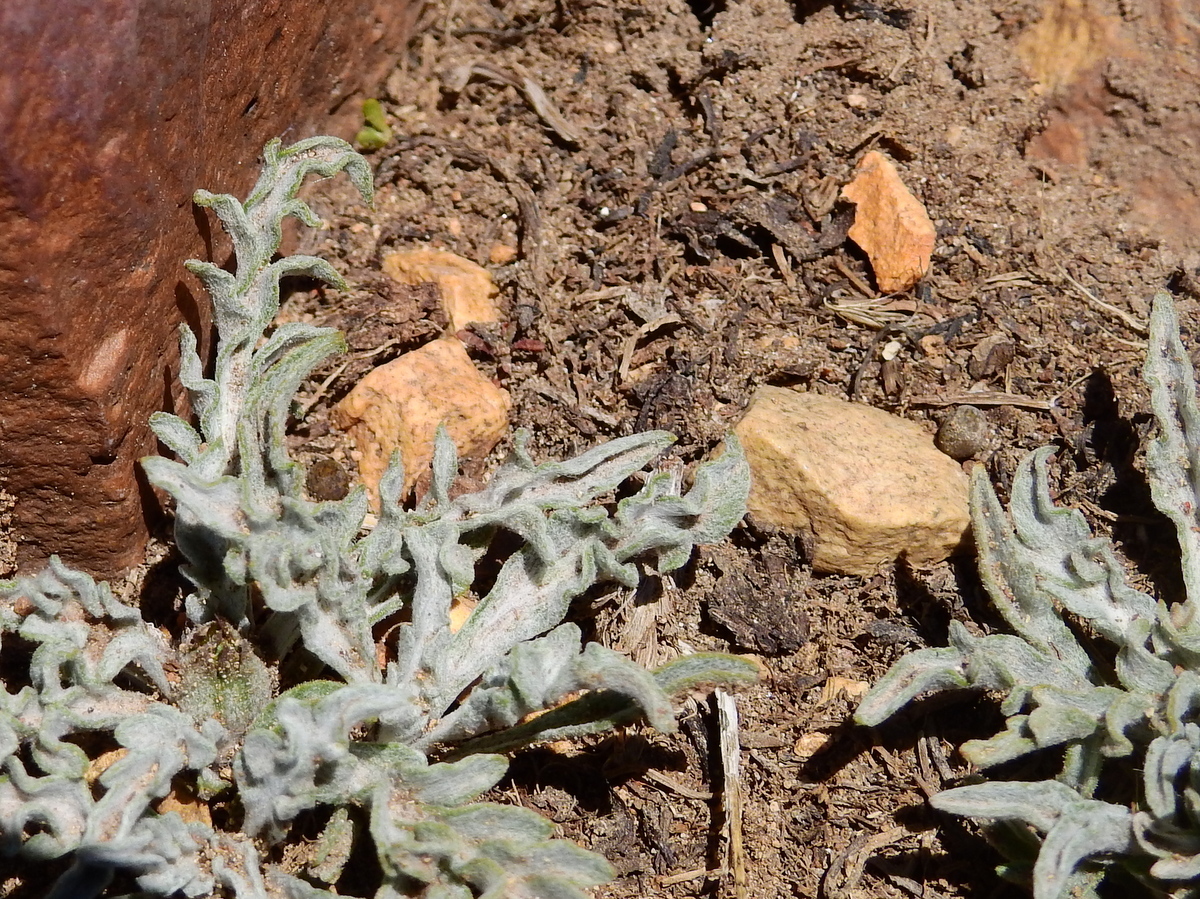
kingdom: Plantae
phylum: Tracheophyta
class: Magnoliopsida
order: Asterales
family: Asteraceae
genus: Leucheria
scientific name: Leucheria candidissima
